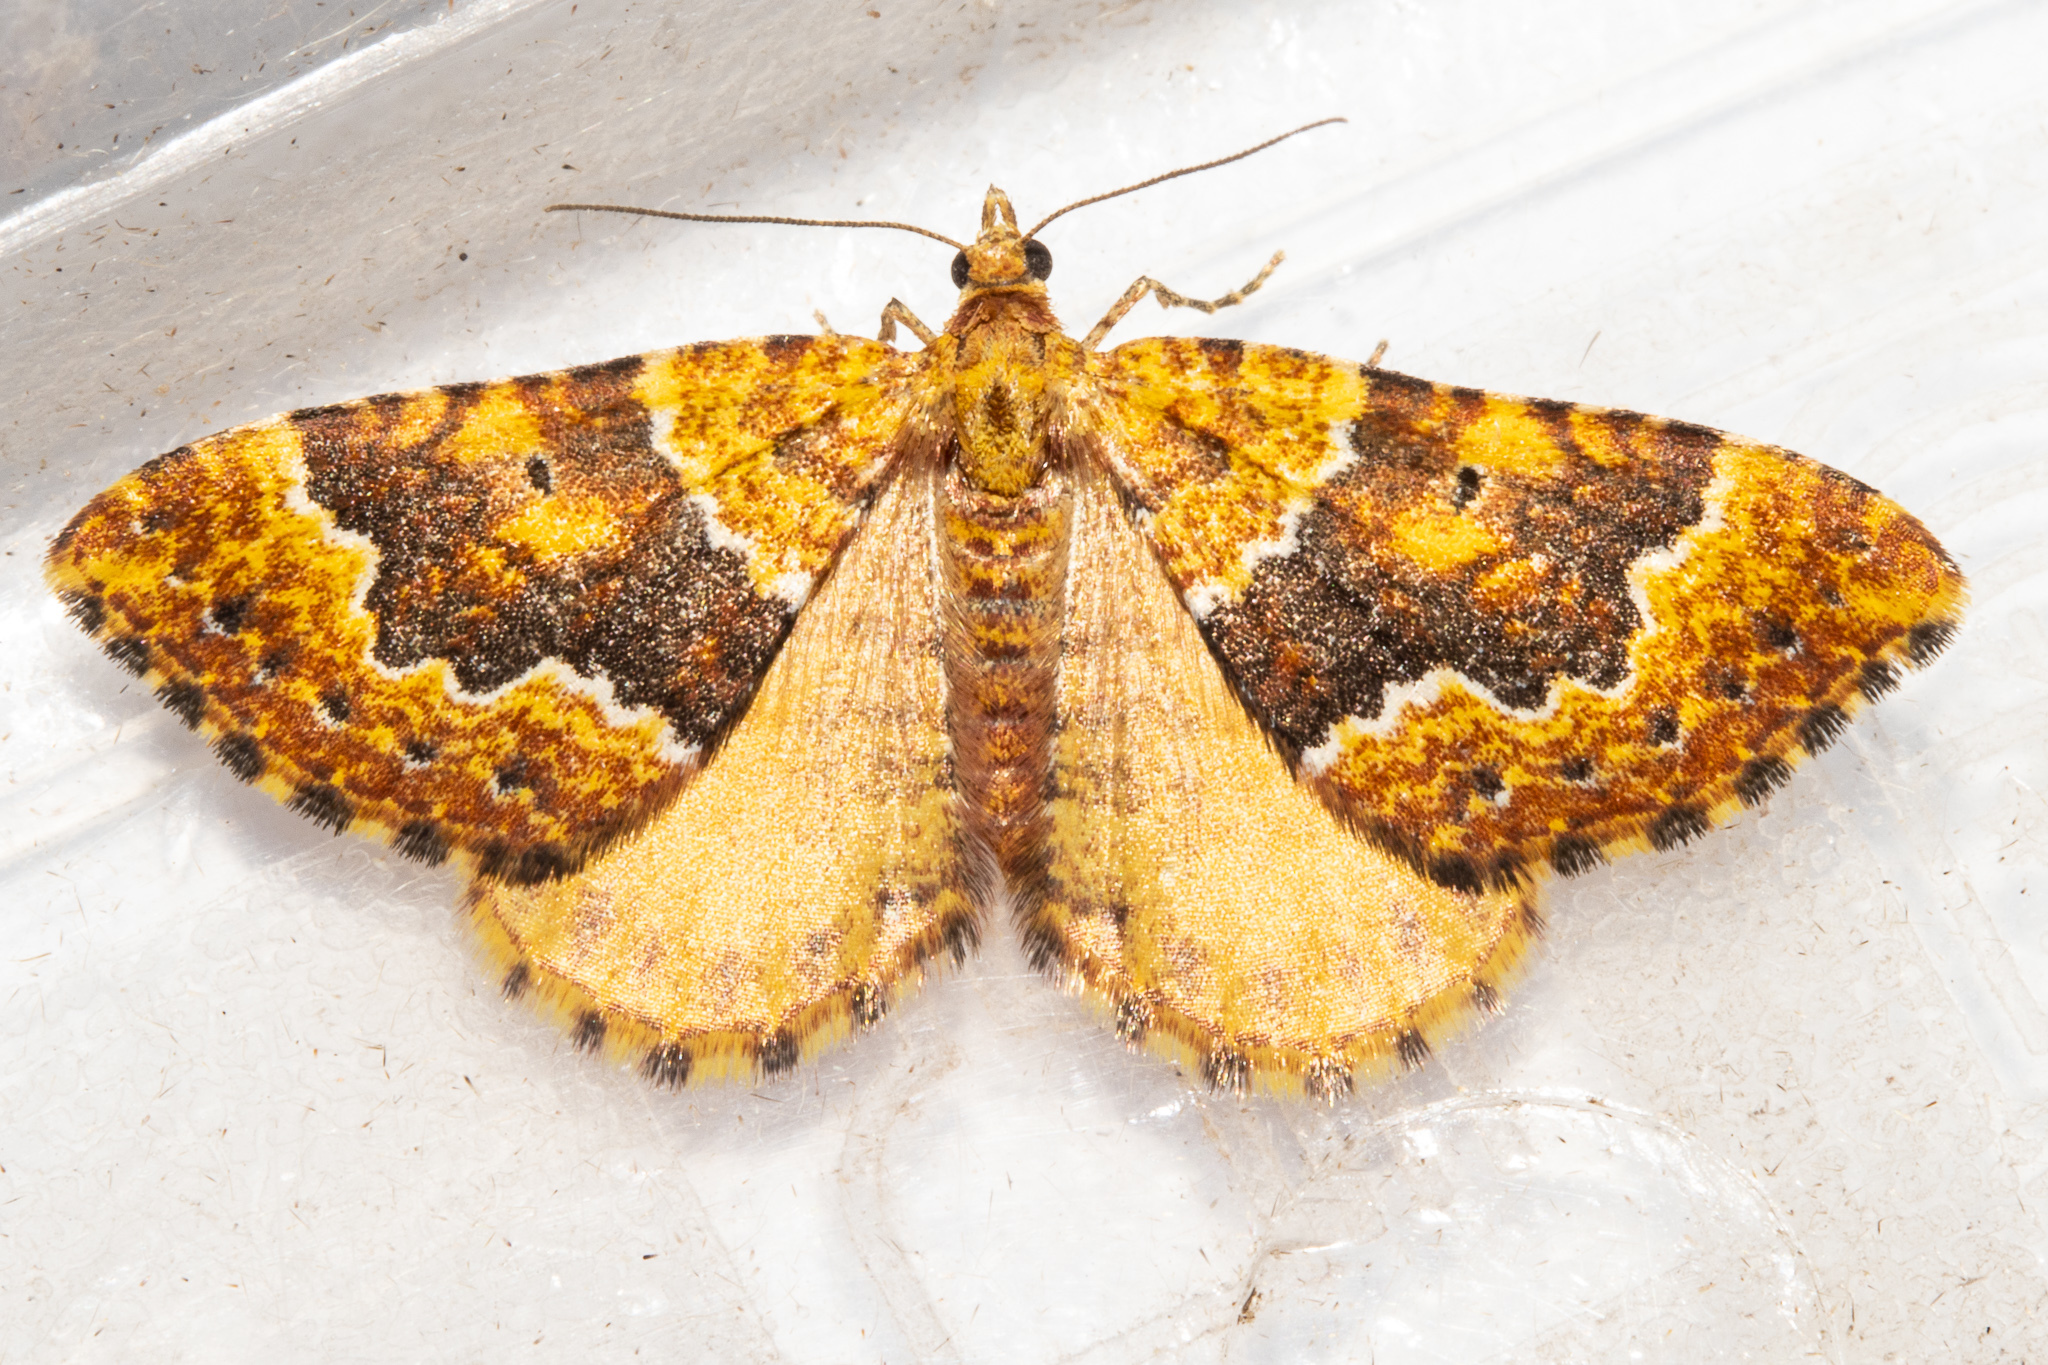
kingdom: Animalia
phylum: Arthropoda
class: Insecta
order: Lepidoptera
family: Geometridae
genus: Asaphodes
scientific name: Asaphodes prasinias
